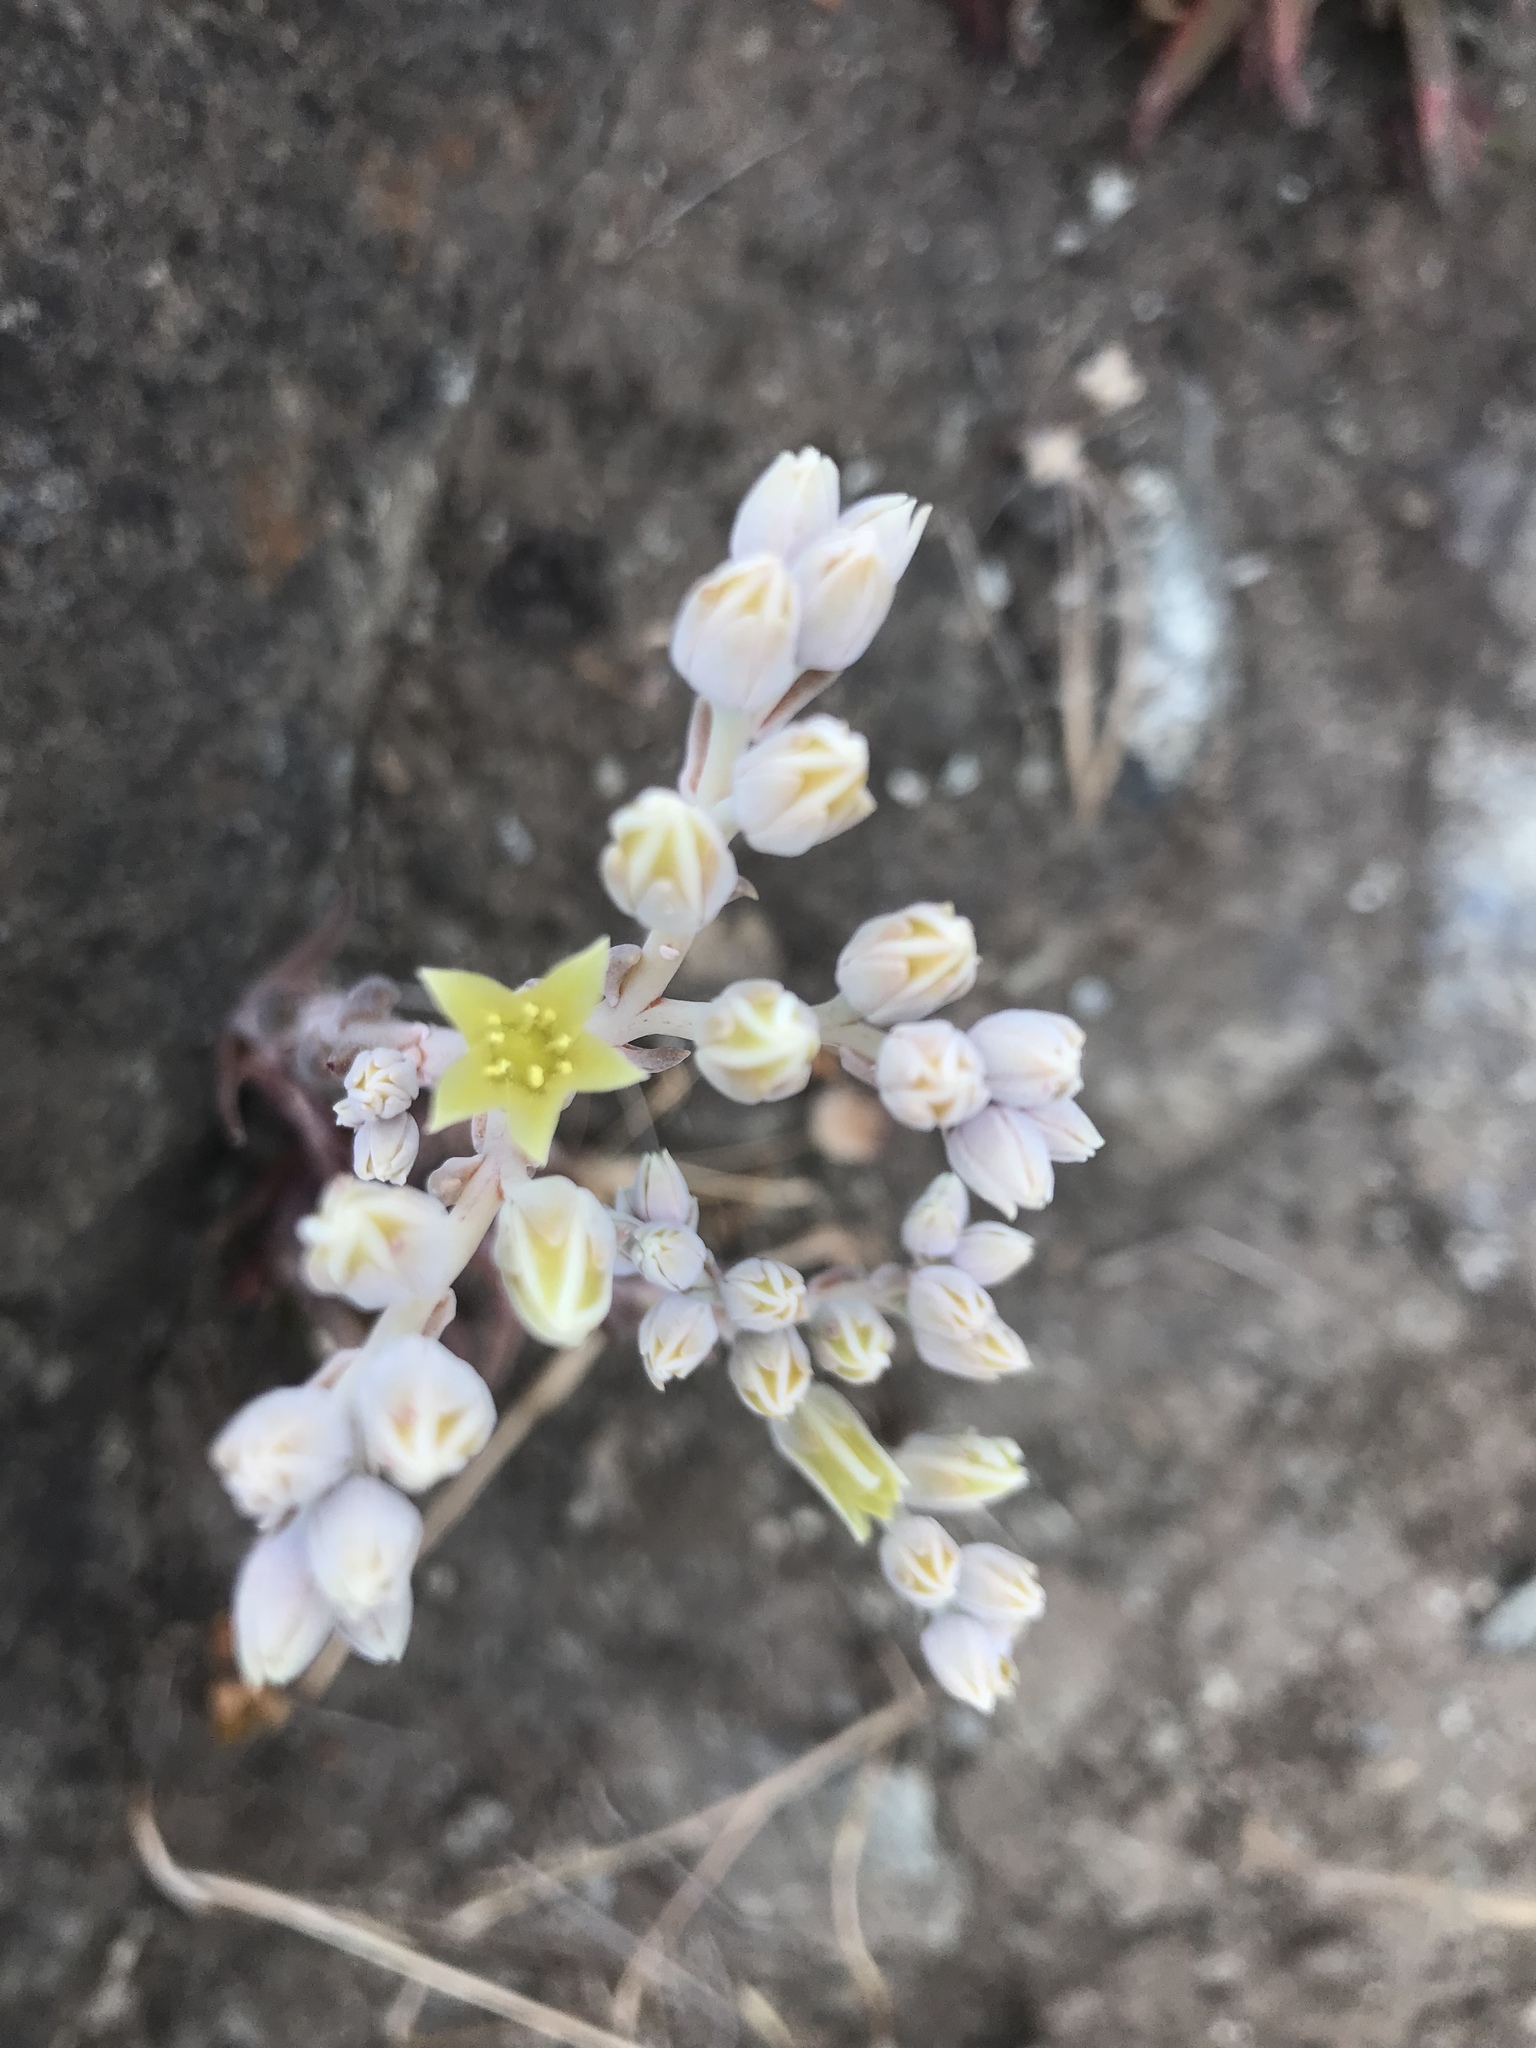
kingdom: Plantae
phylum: Tracheophyta
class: Magnoliopsida
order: Saxifragales
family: Crassulaceae
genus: Dudleya
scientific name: Dudleya abramsii
